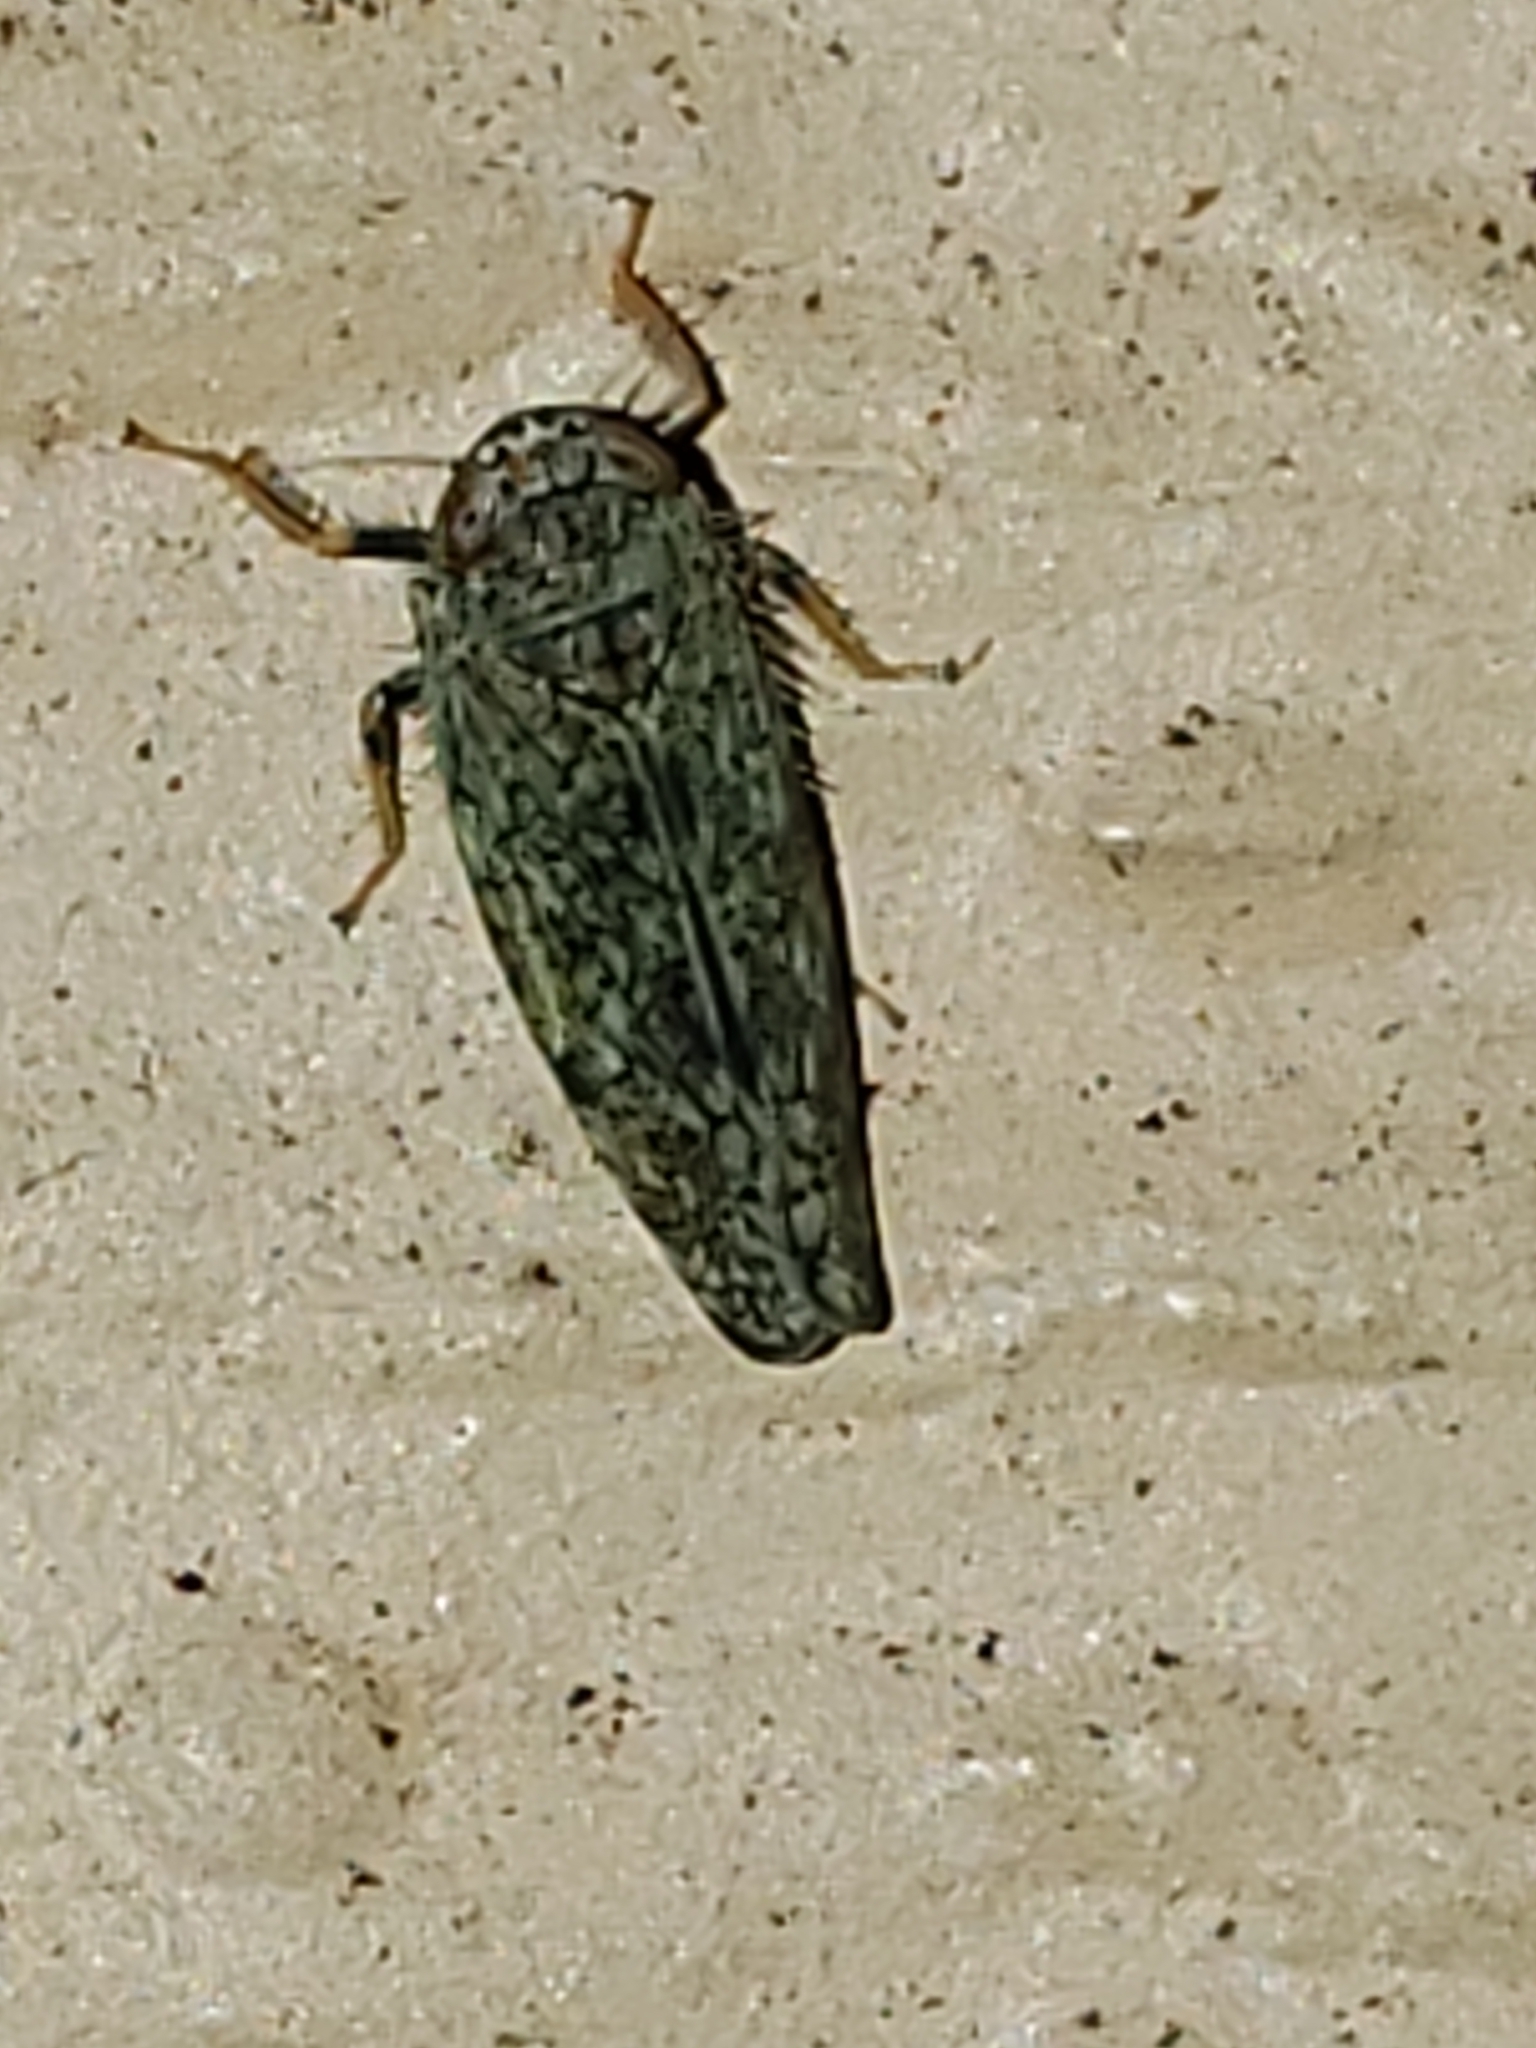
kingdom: Animalia
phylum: Arthropoda
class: Insecta
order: Hemiptera
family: Cicadellidae
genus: Orientus
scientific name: Orientus ishidae
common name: Japanese leafhopper
